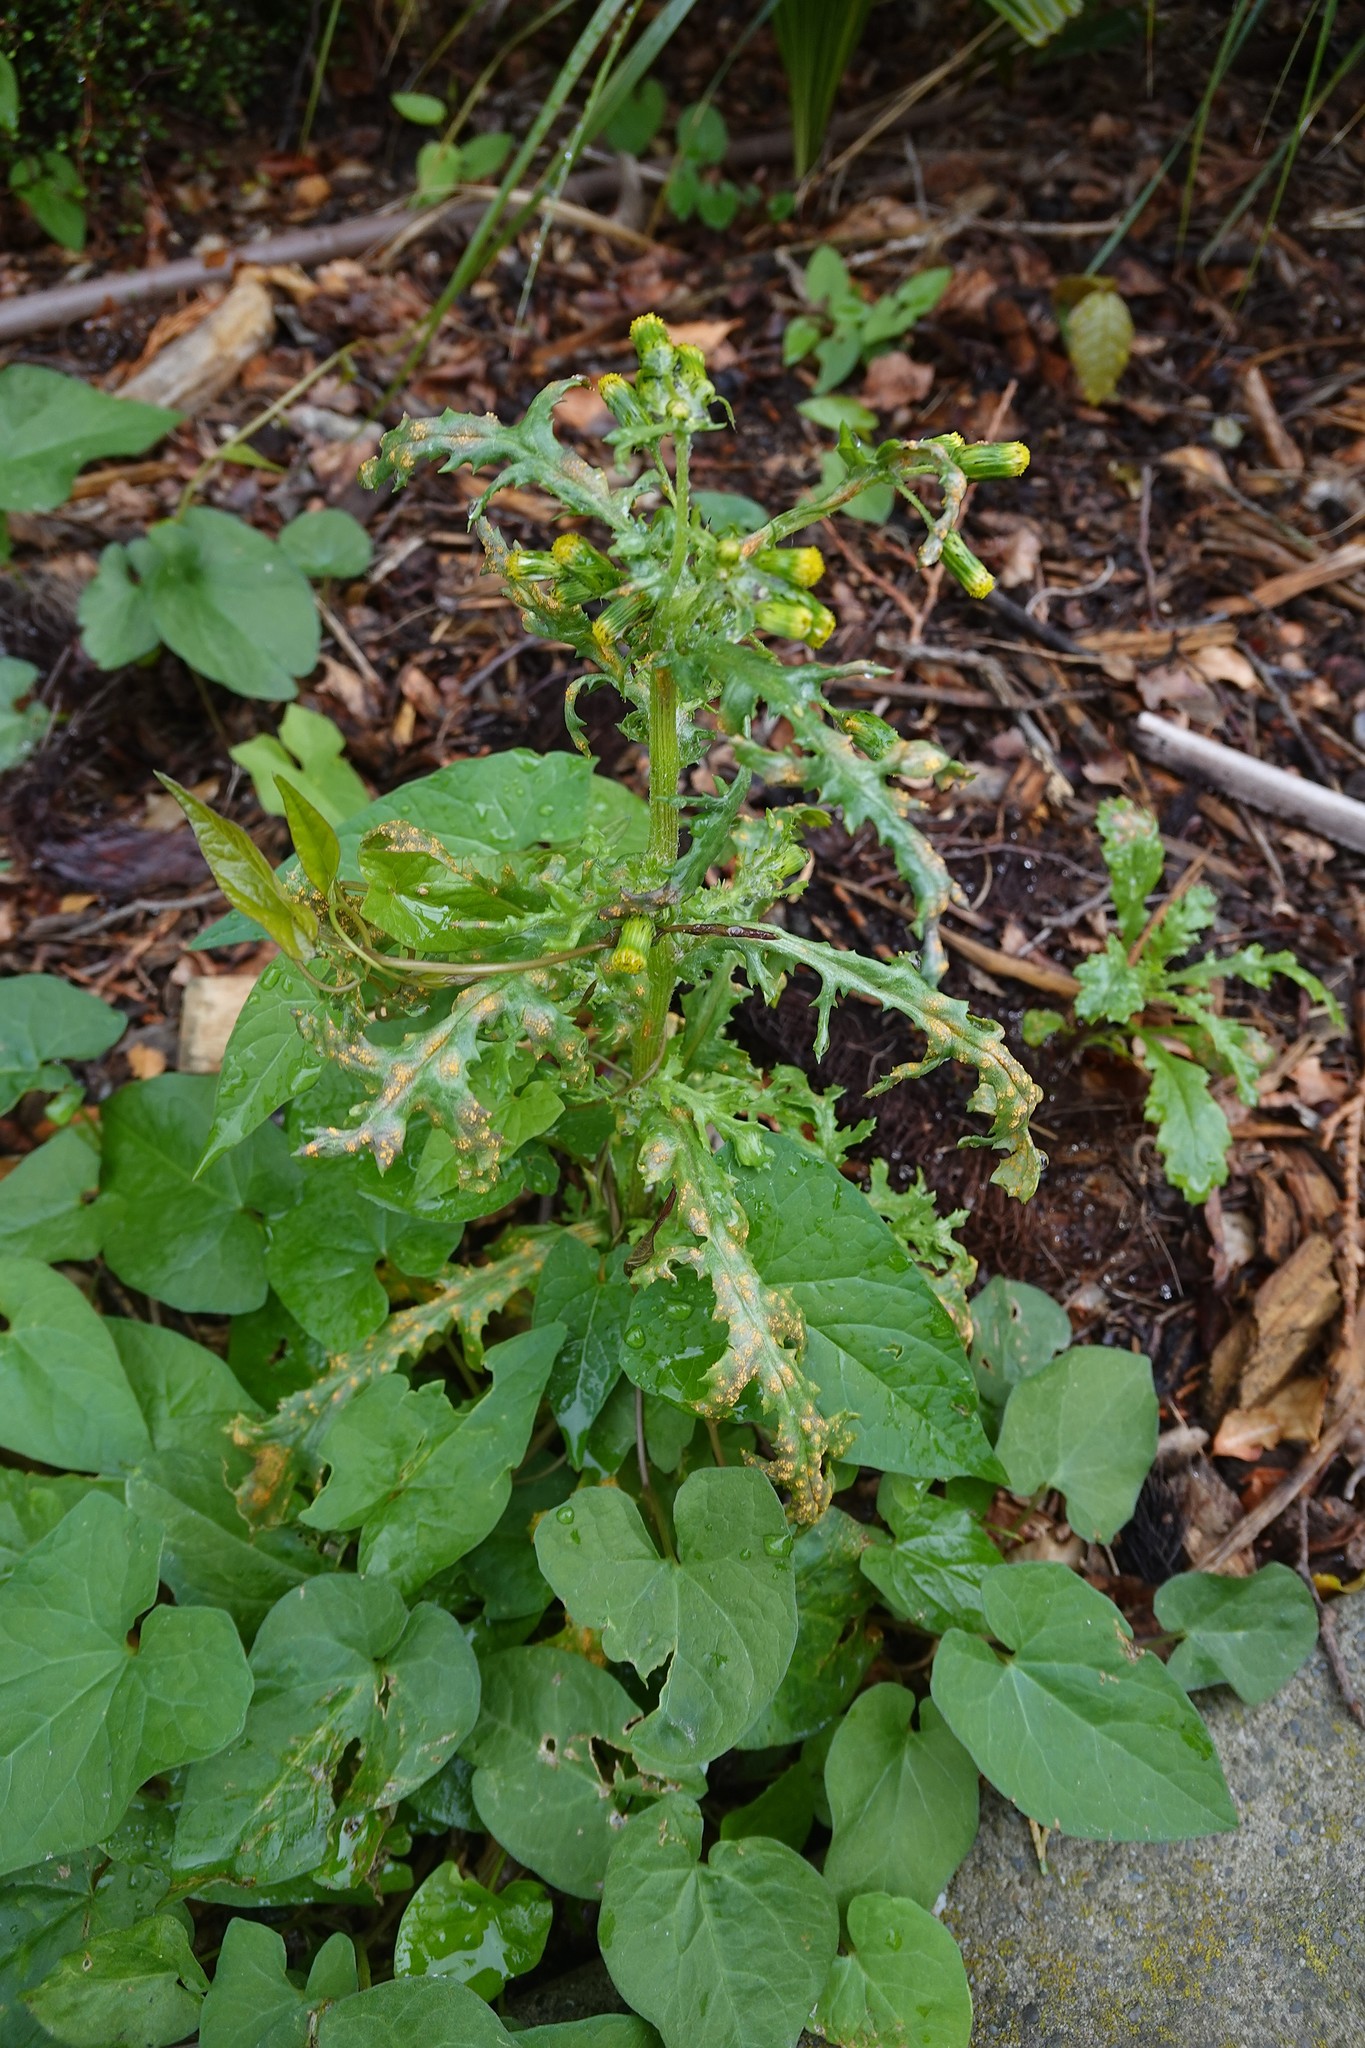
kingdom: Plantae
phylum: Tracheophyta
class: Magnoliopsida
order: Asterales
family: Asteraceae
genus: Senecio
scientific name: Senecio vulgaris
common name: Old-man-in-the-spring
